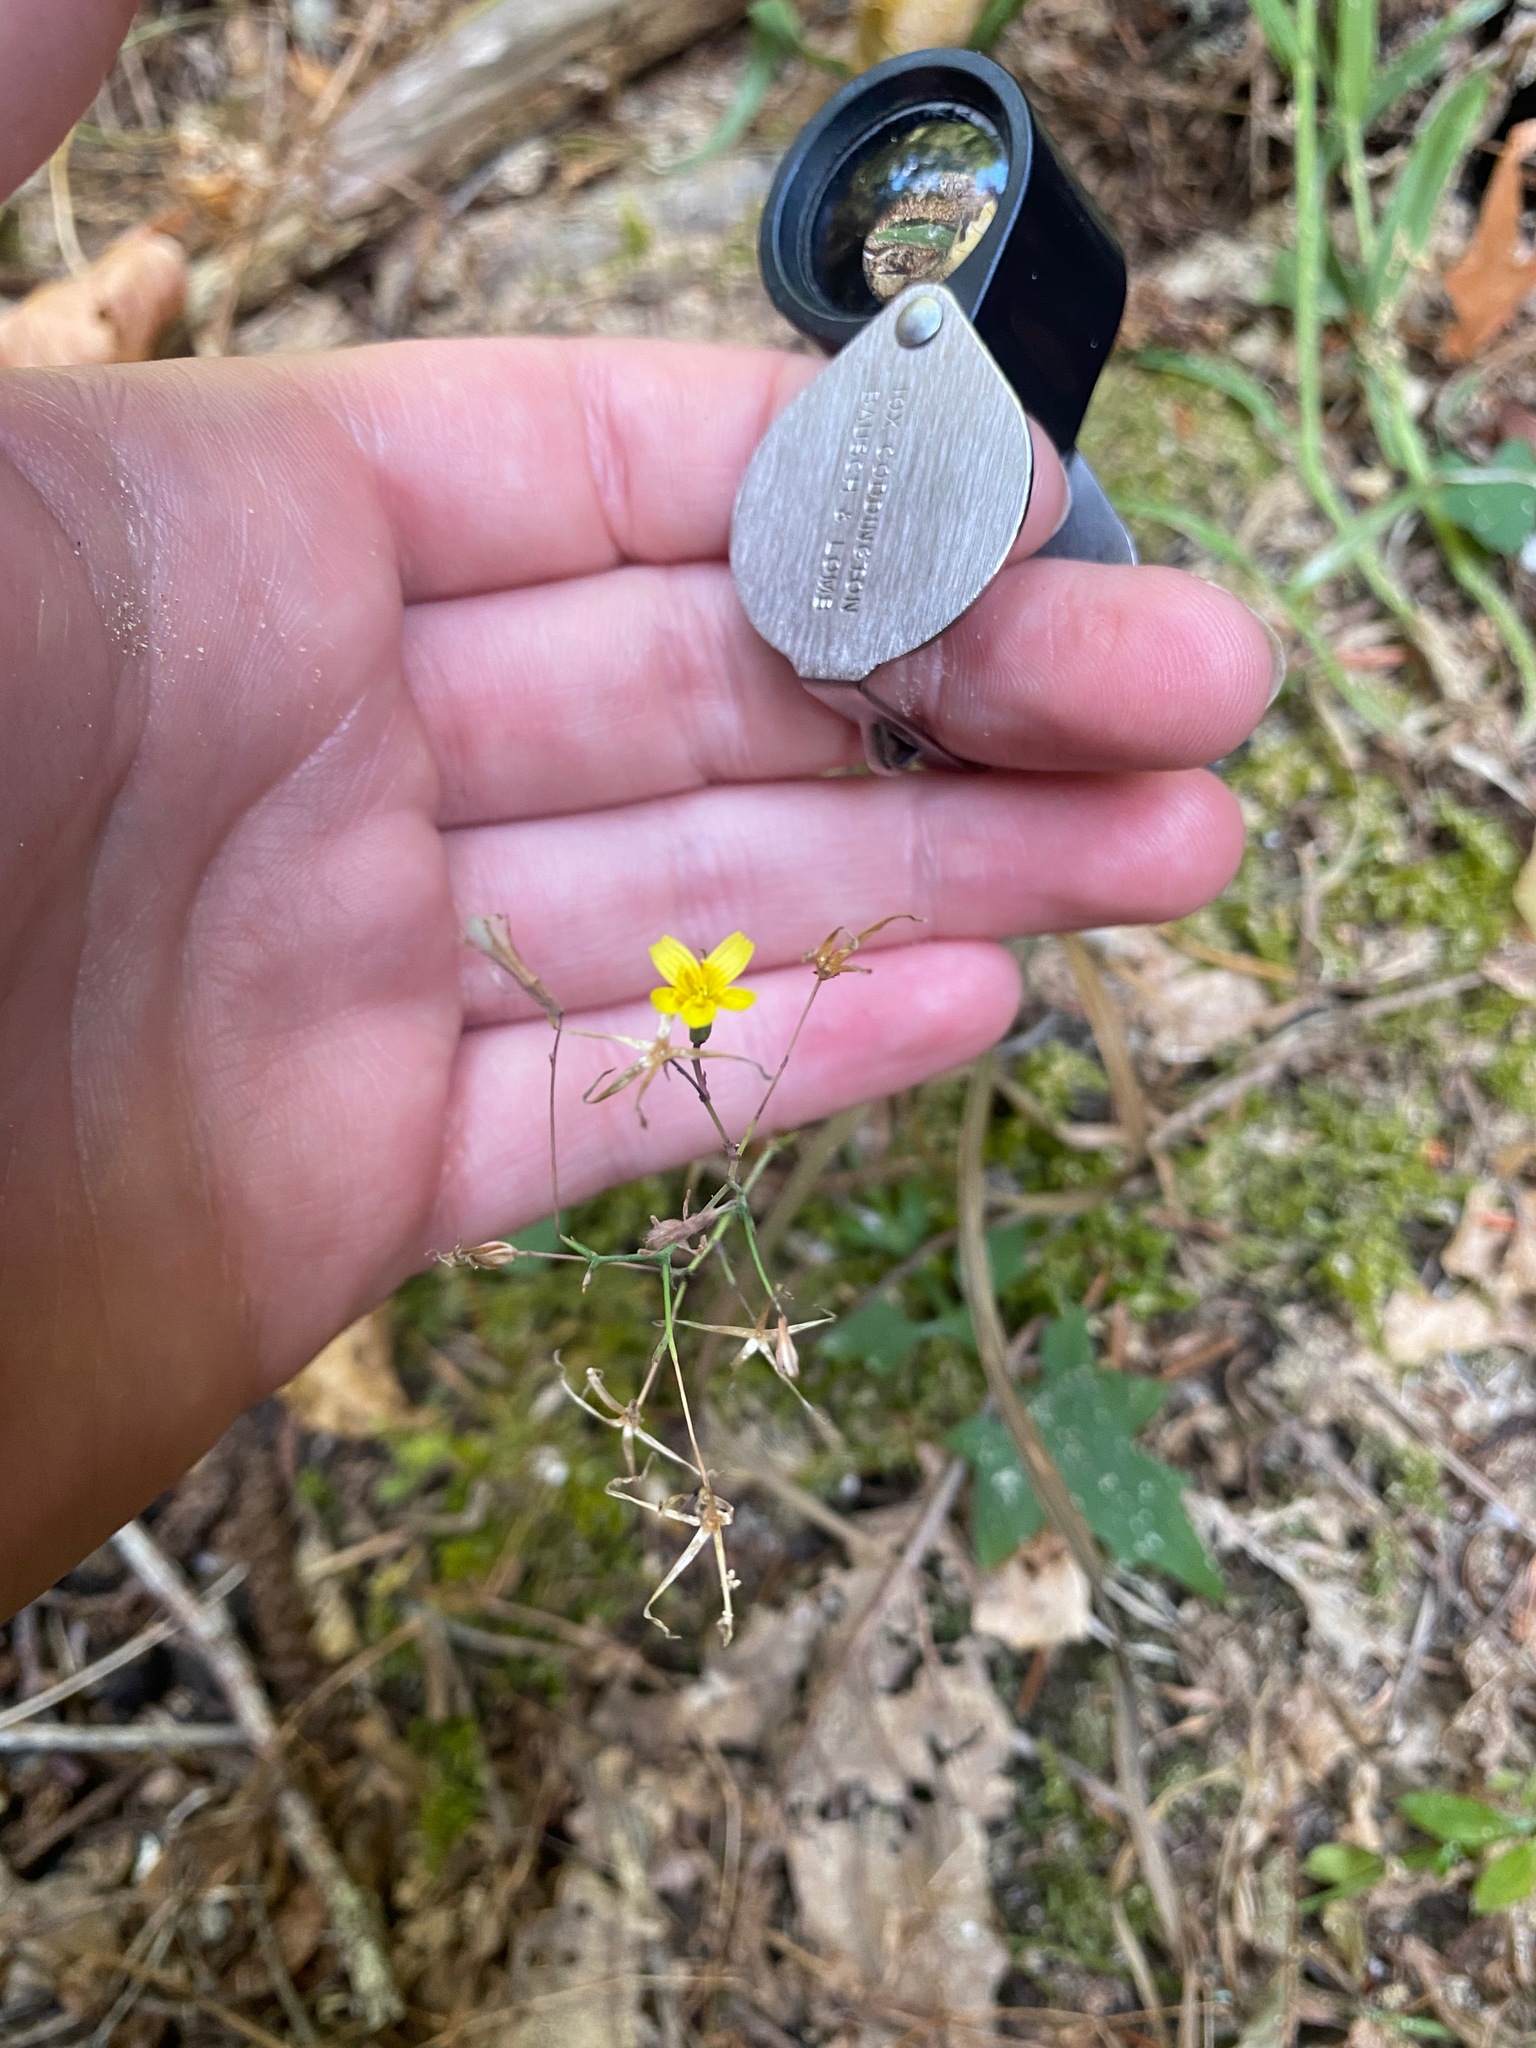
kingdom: Plantae
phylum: Tracheophyta
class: Magnoliopsida
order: Asterales
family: Asteraceae
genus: Mycelis
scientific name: Mycelis muralis
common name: Wall lettuce
